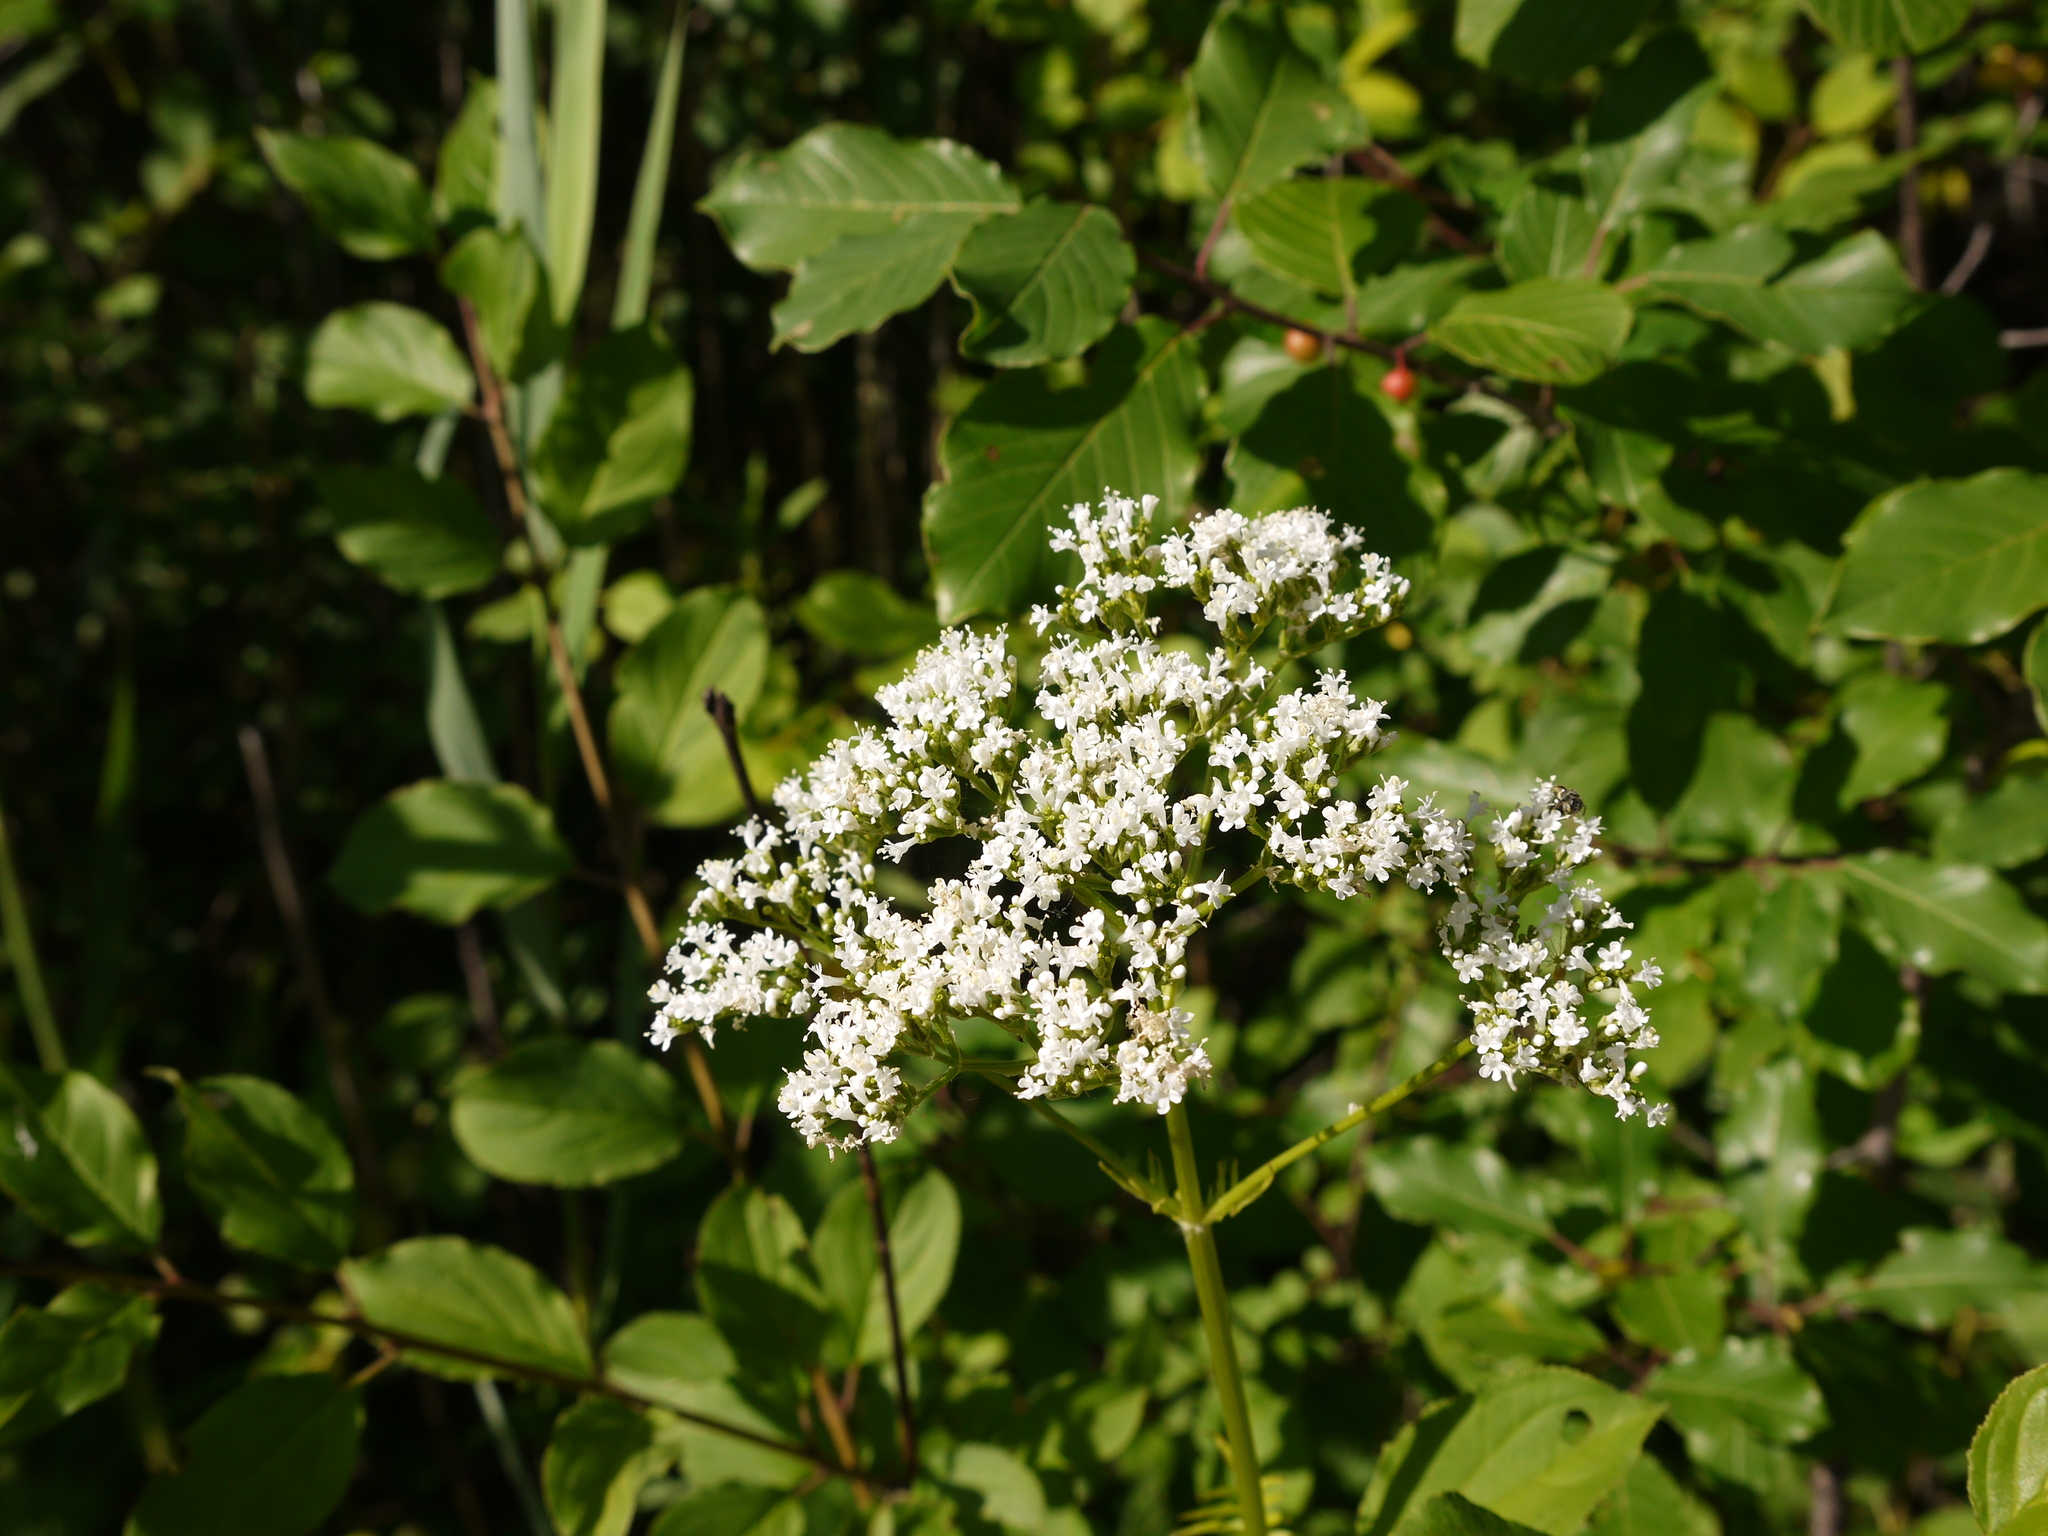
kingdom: Plantae
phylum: Tracheophyta
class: Magnoliopsida
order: Dipsacales
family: Caprifoliaceae
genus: Valeriana
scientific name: Valeriana officinalis
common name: Common valerian
